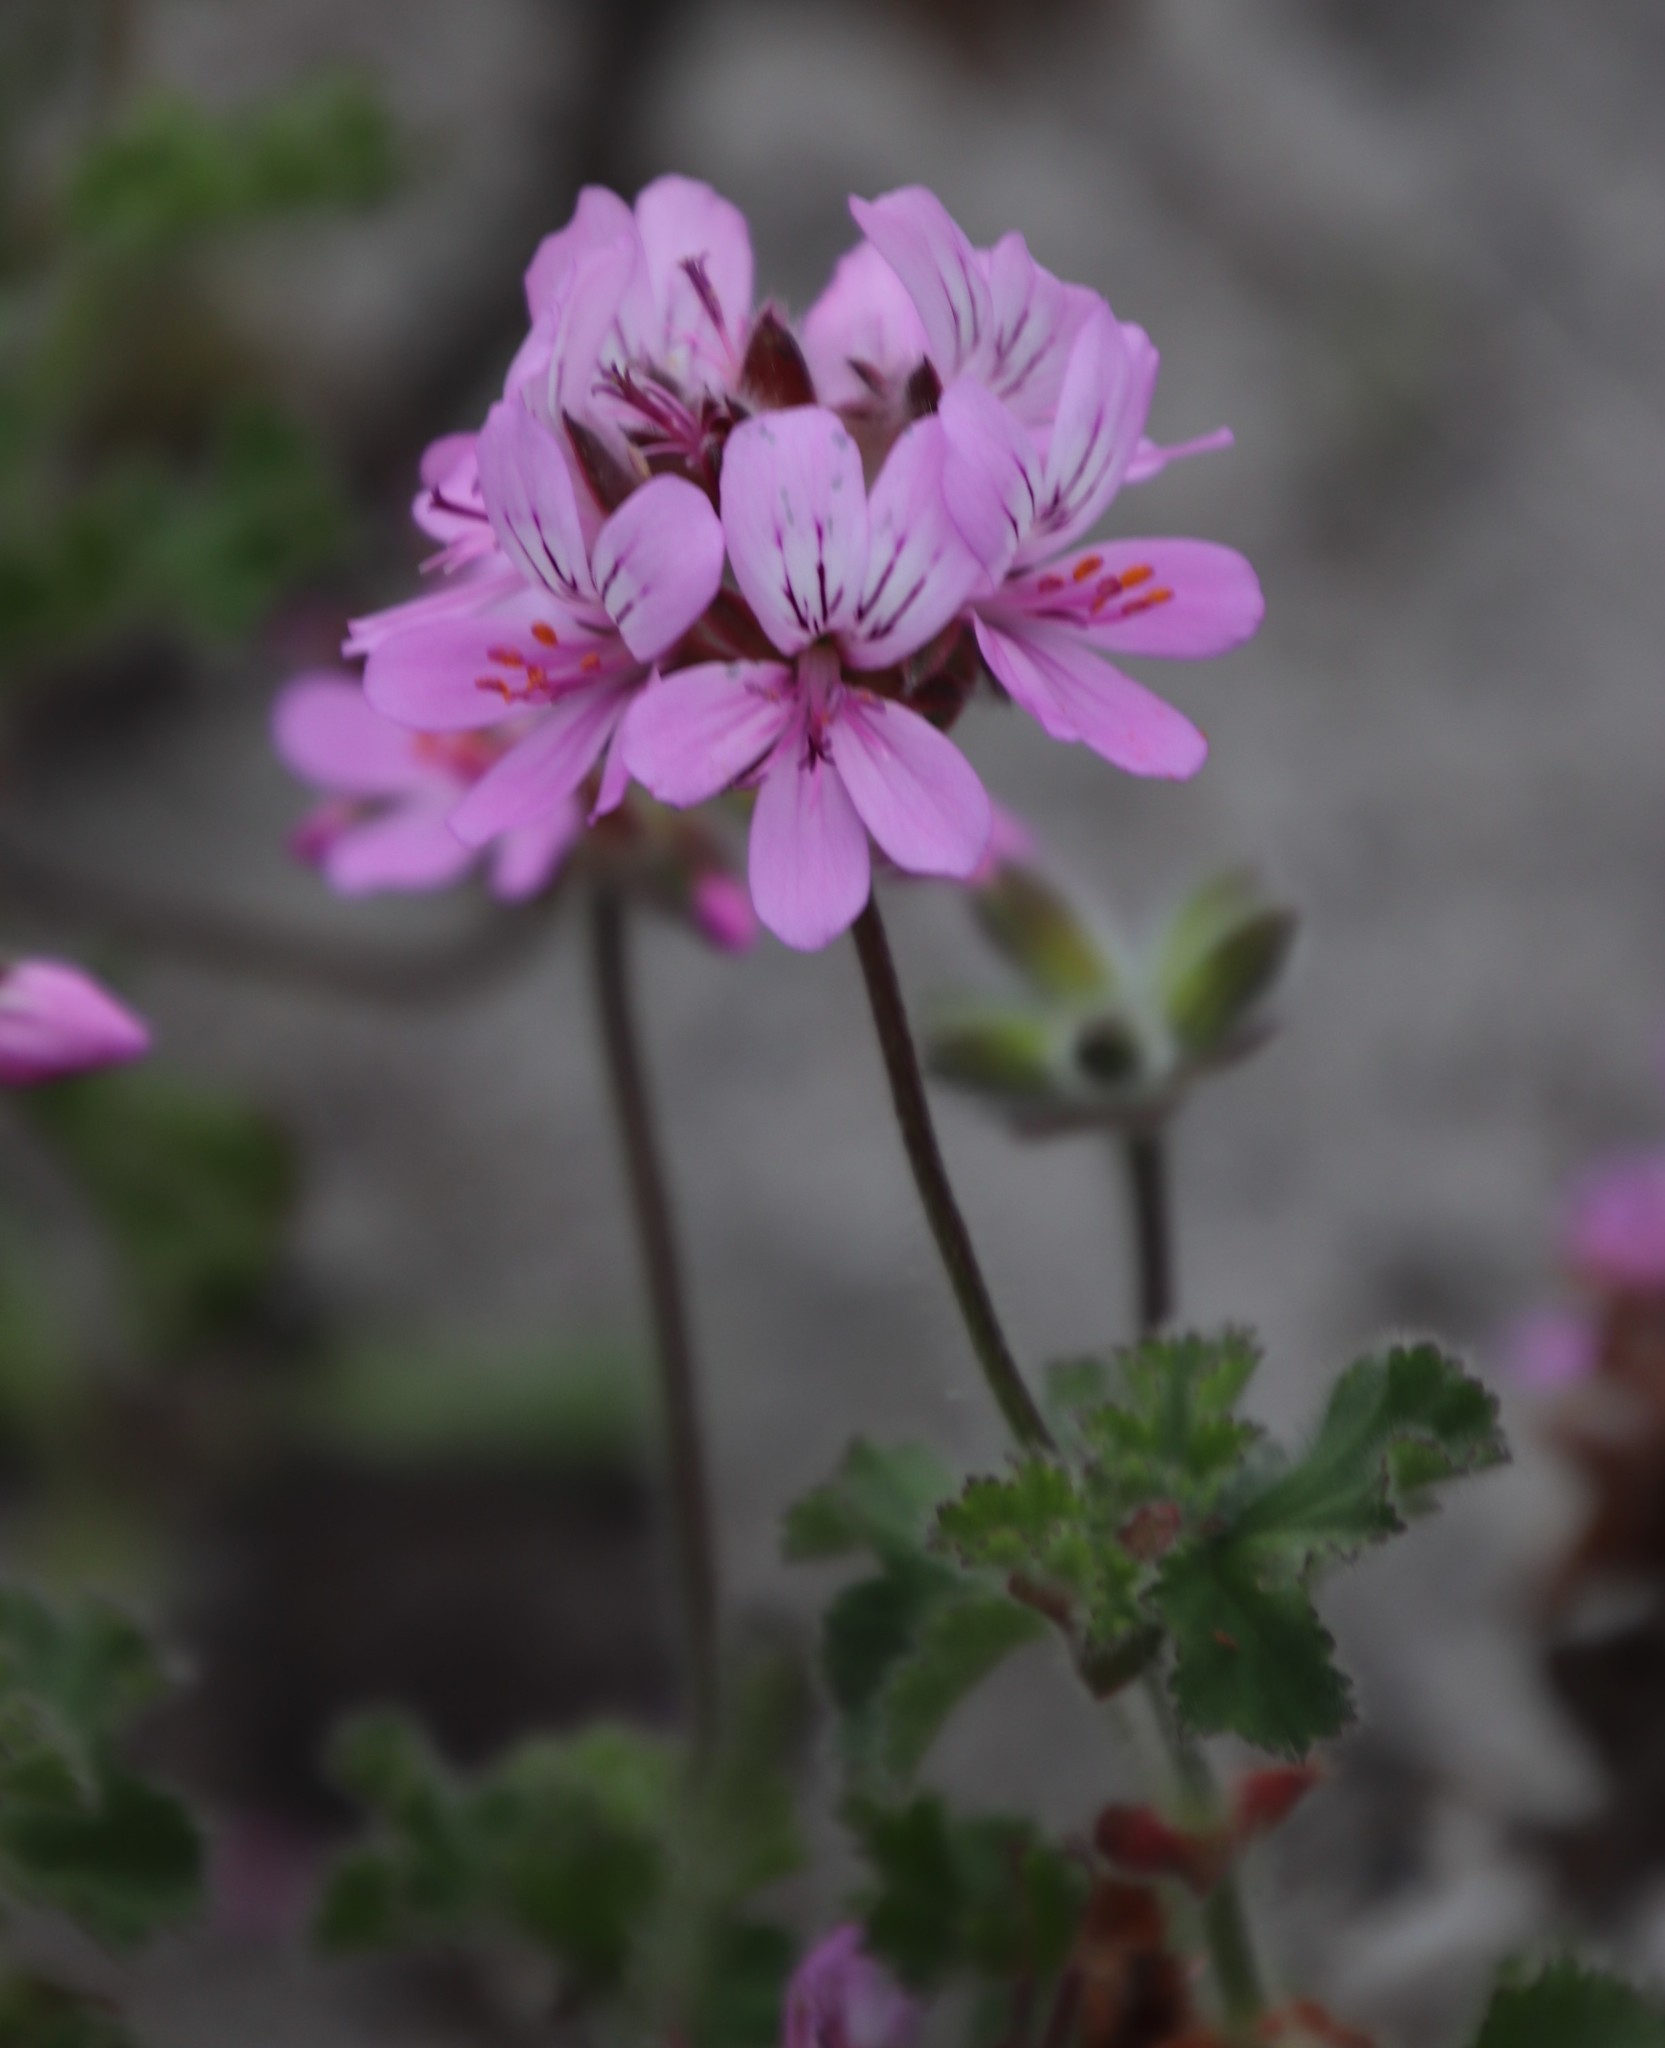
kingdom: Plantae
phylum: Tracheophyta
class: Magnoliopsida
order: Geraniales
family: Geraniaceae
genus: Pelargonium
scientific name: Pelargonium capitatum
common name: Rose scented geranium
